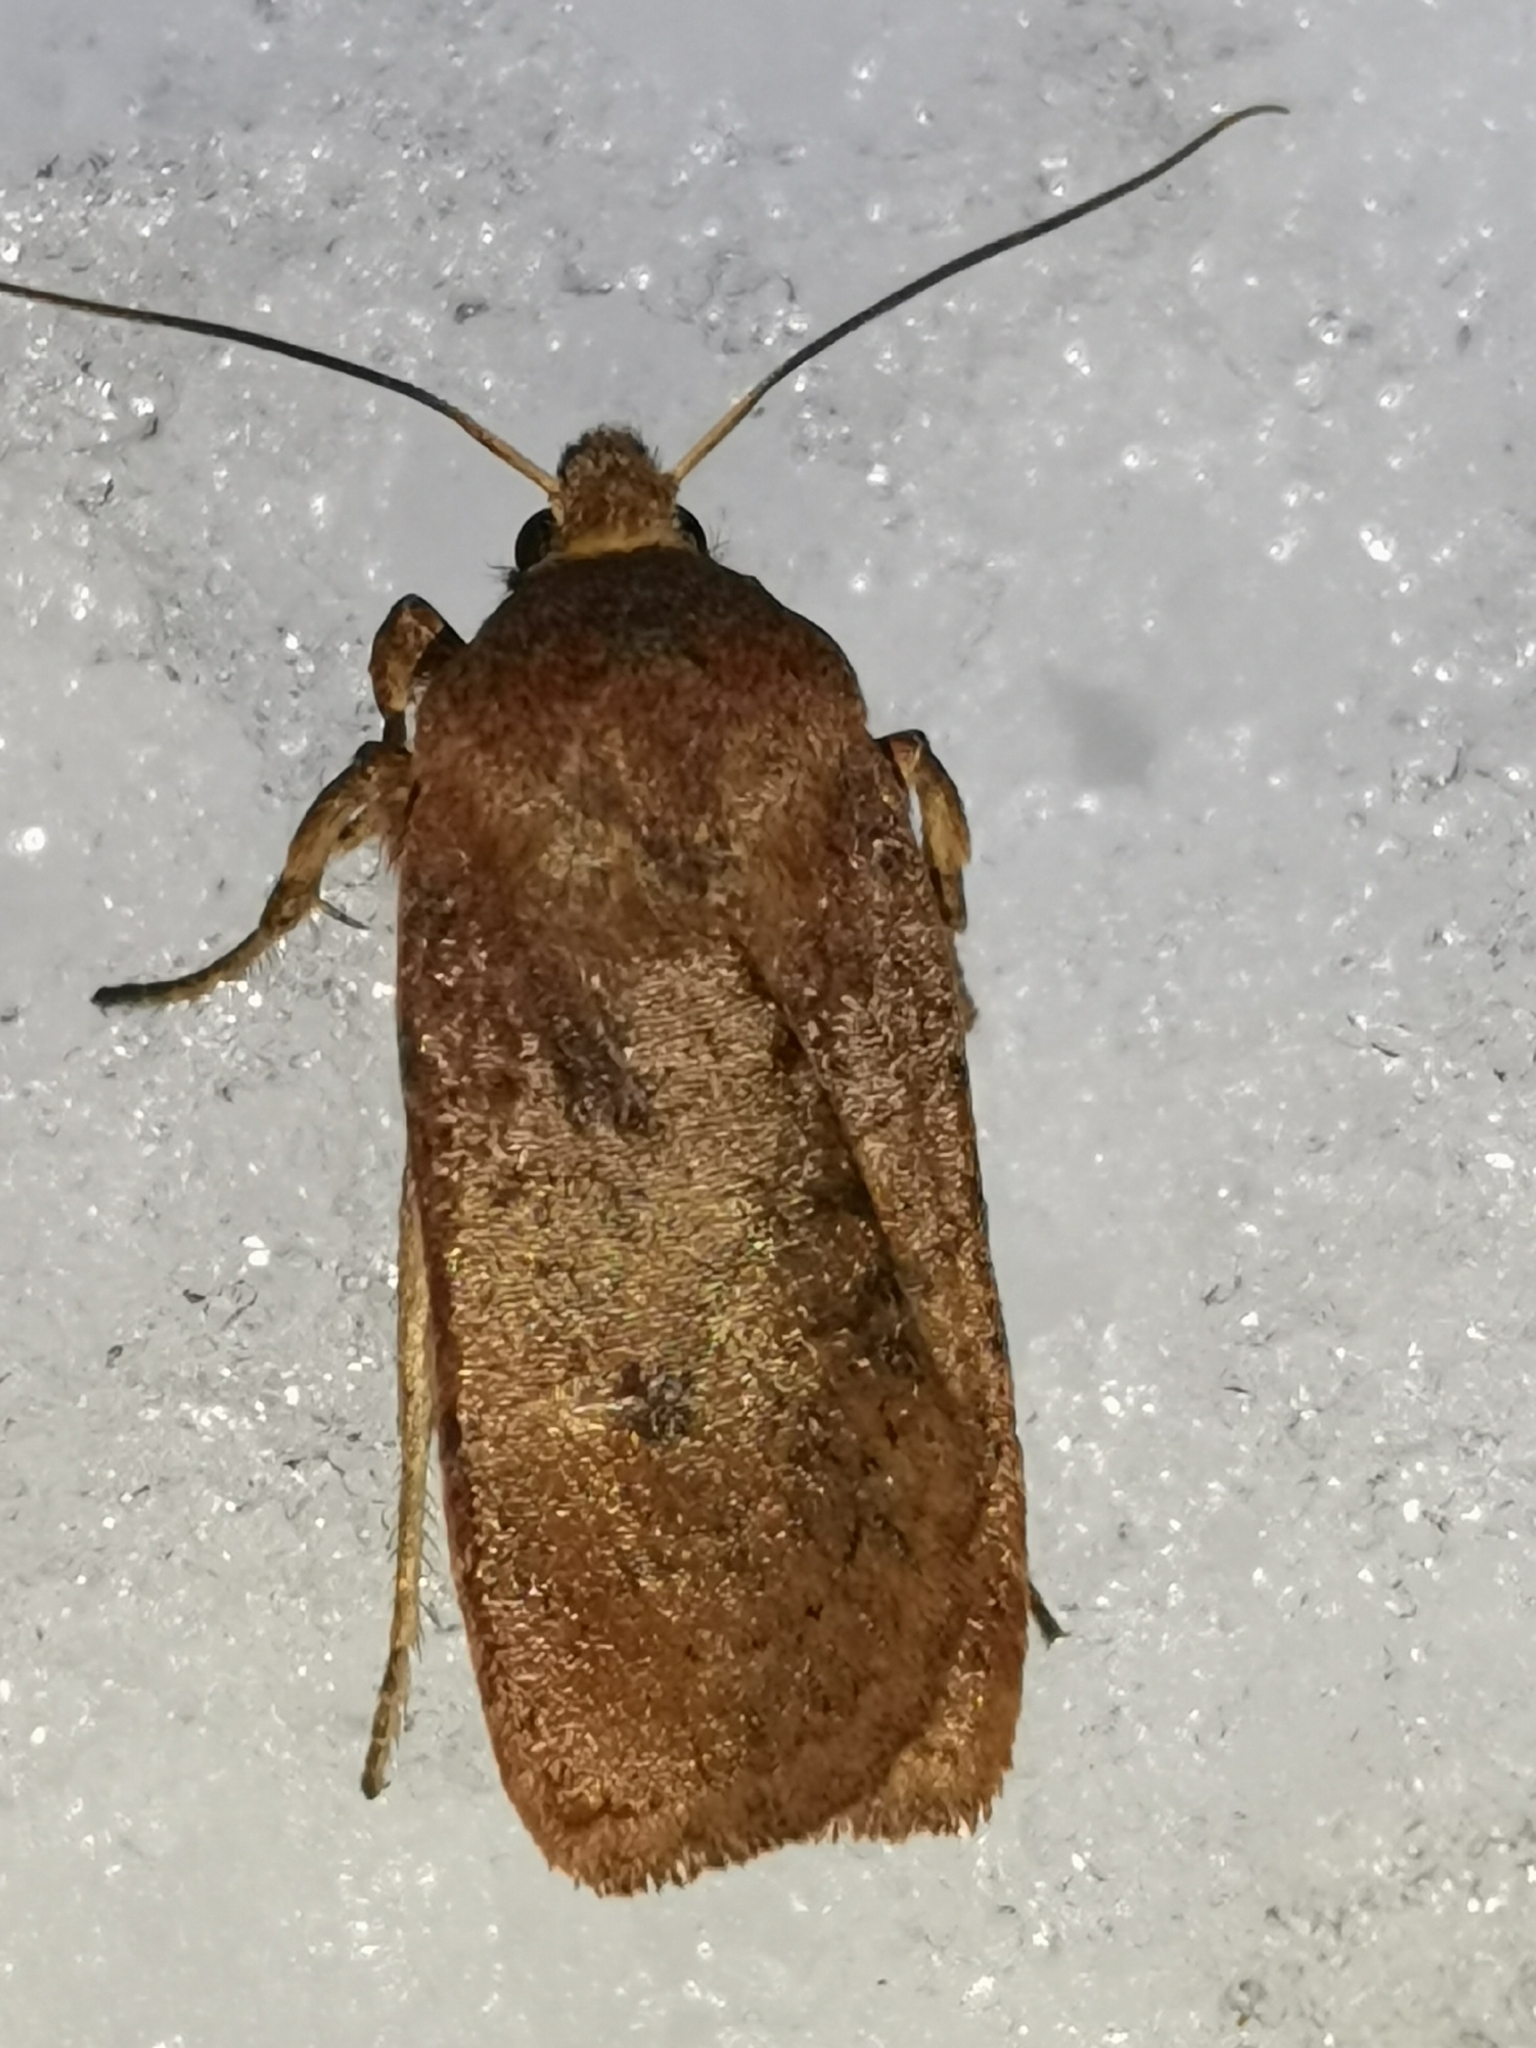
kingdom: Animalia
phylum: Arthropoda
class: Insecta
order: Lepidoptera
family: Noctuidae
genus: Conistra
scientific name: Conistra vaccinii
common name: Chestnut
